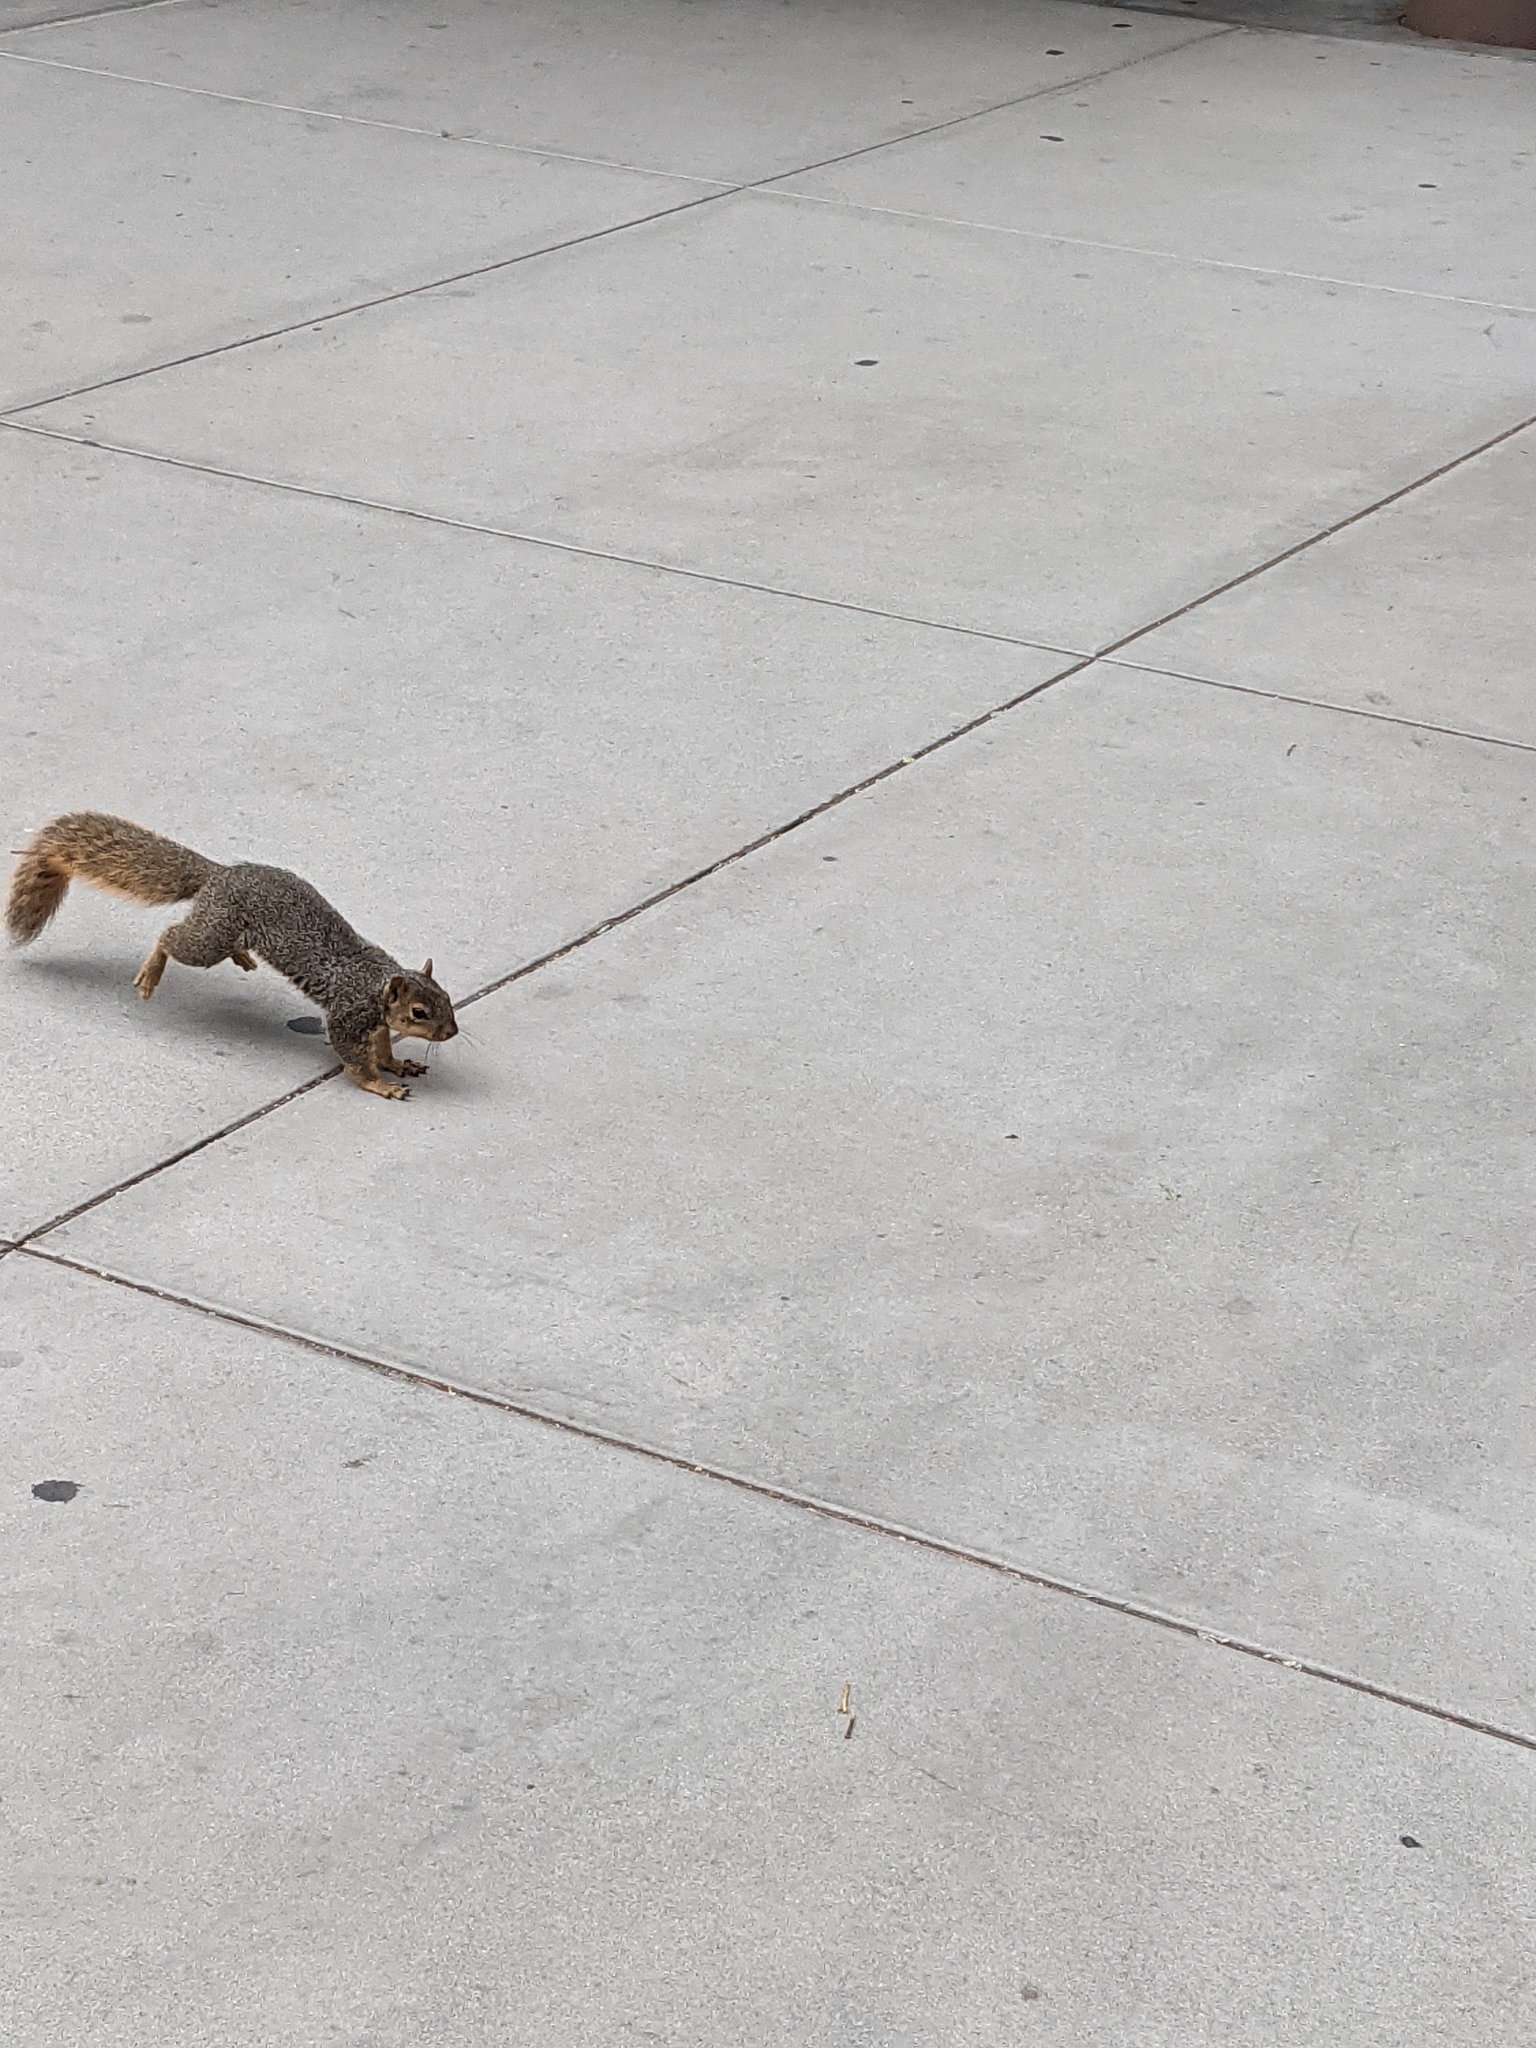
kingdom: Animalia
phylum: Chordata
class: Mammalia
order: Rodentia
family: Sciuridae
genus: Sciurus
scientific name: Sciurus niger
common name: Fox squirrel
